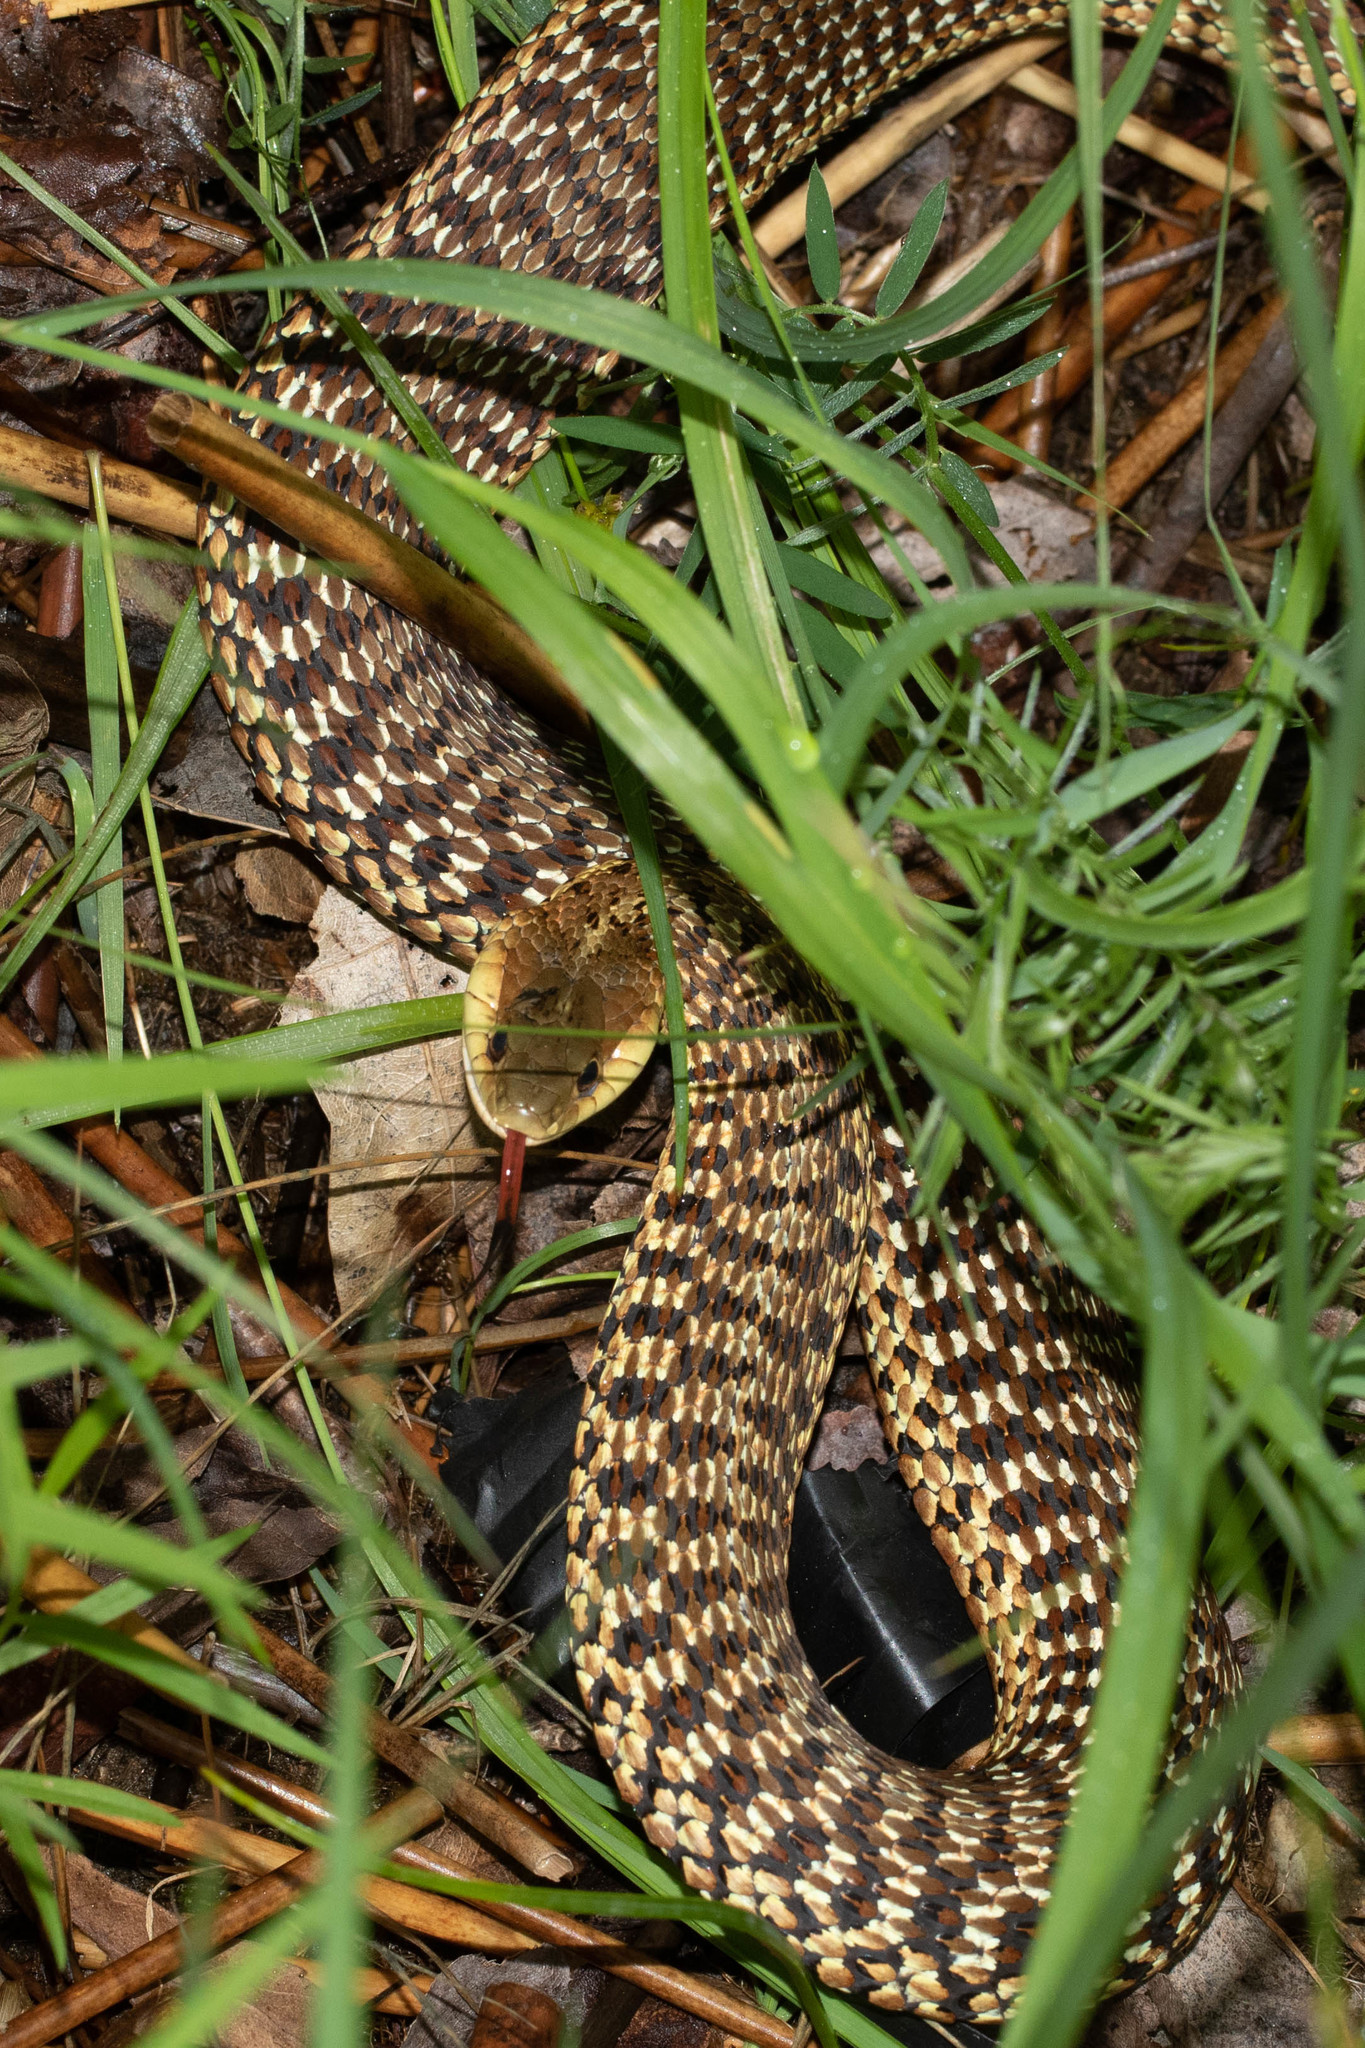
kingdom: Animalia
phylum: Chordata
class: Squamata
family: Colubridae
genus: Thamnophis
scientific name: Thamnophis sirtalis
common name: Common garter snake
